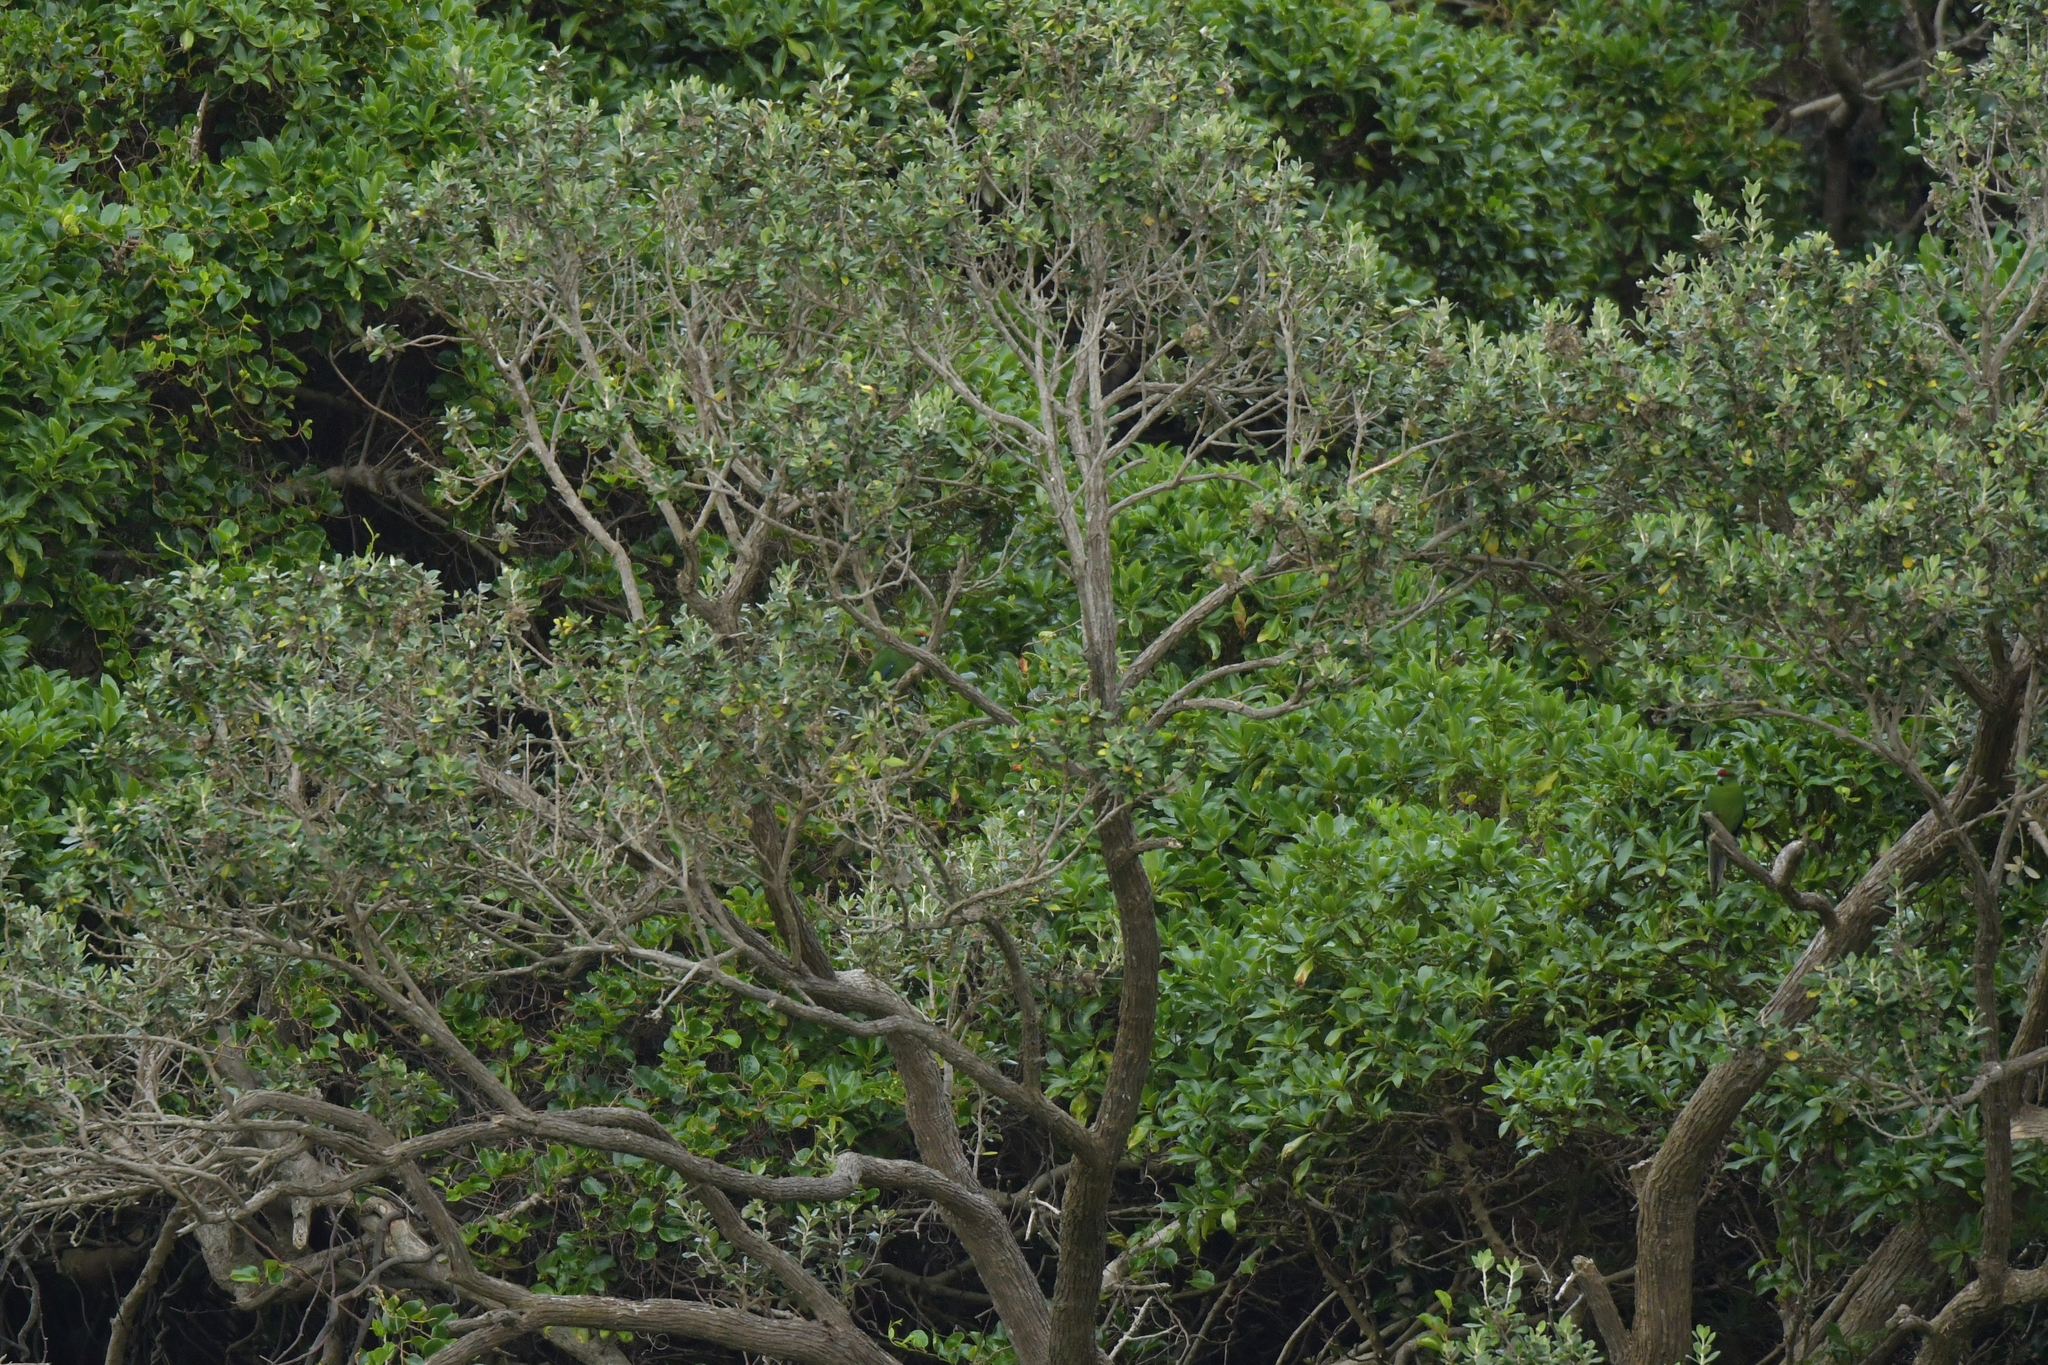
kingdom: Animalia
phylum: Chordata
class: Aves
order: Psittaciformes
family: Psittacidae
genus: Cyanoramphus
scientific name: Cyanoramphus novaezelandiae
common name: Red-fronted parakeet
